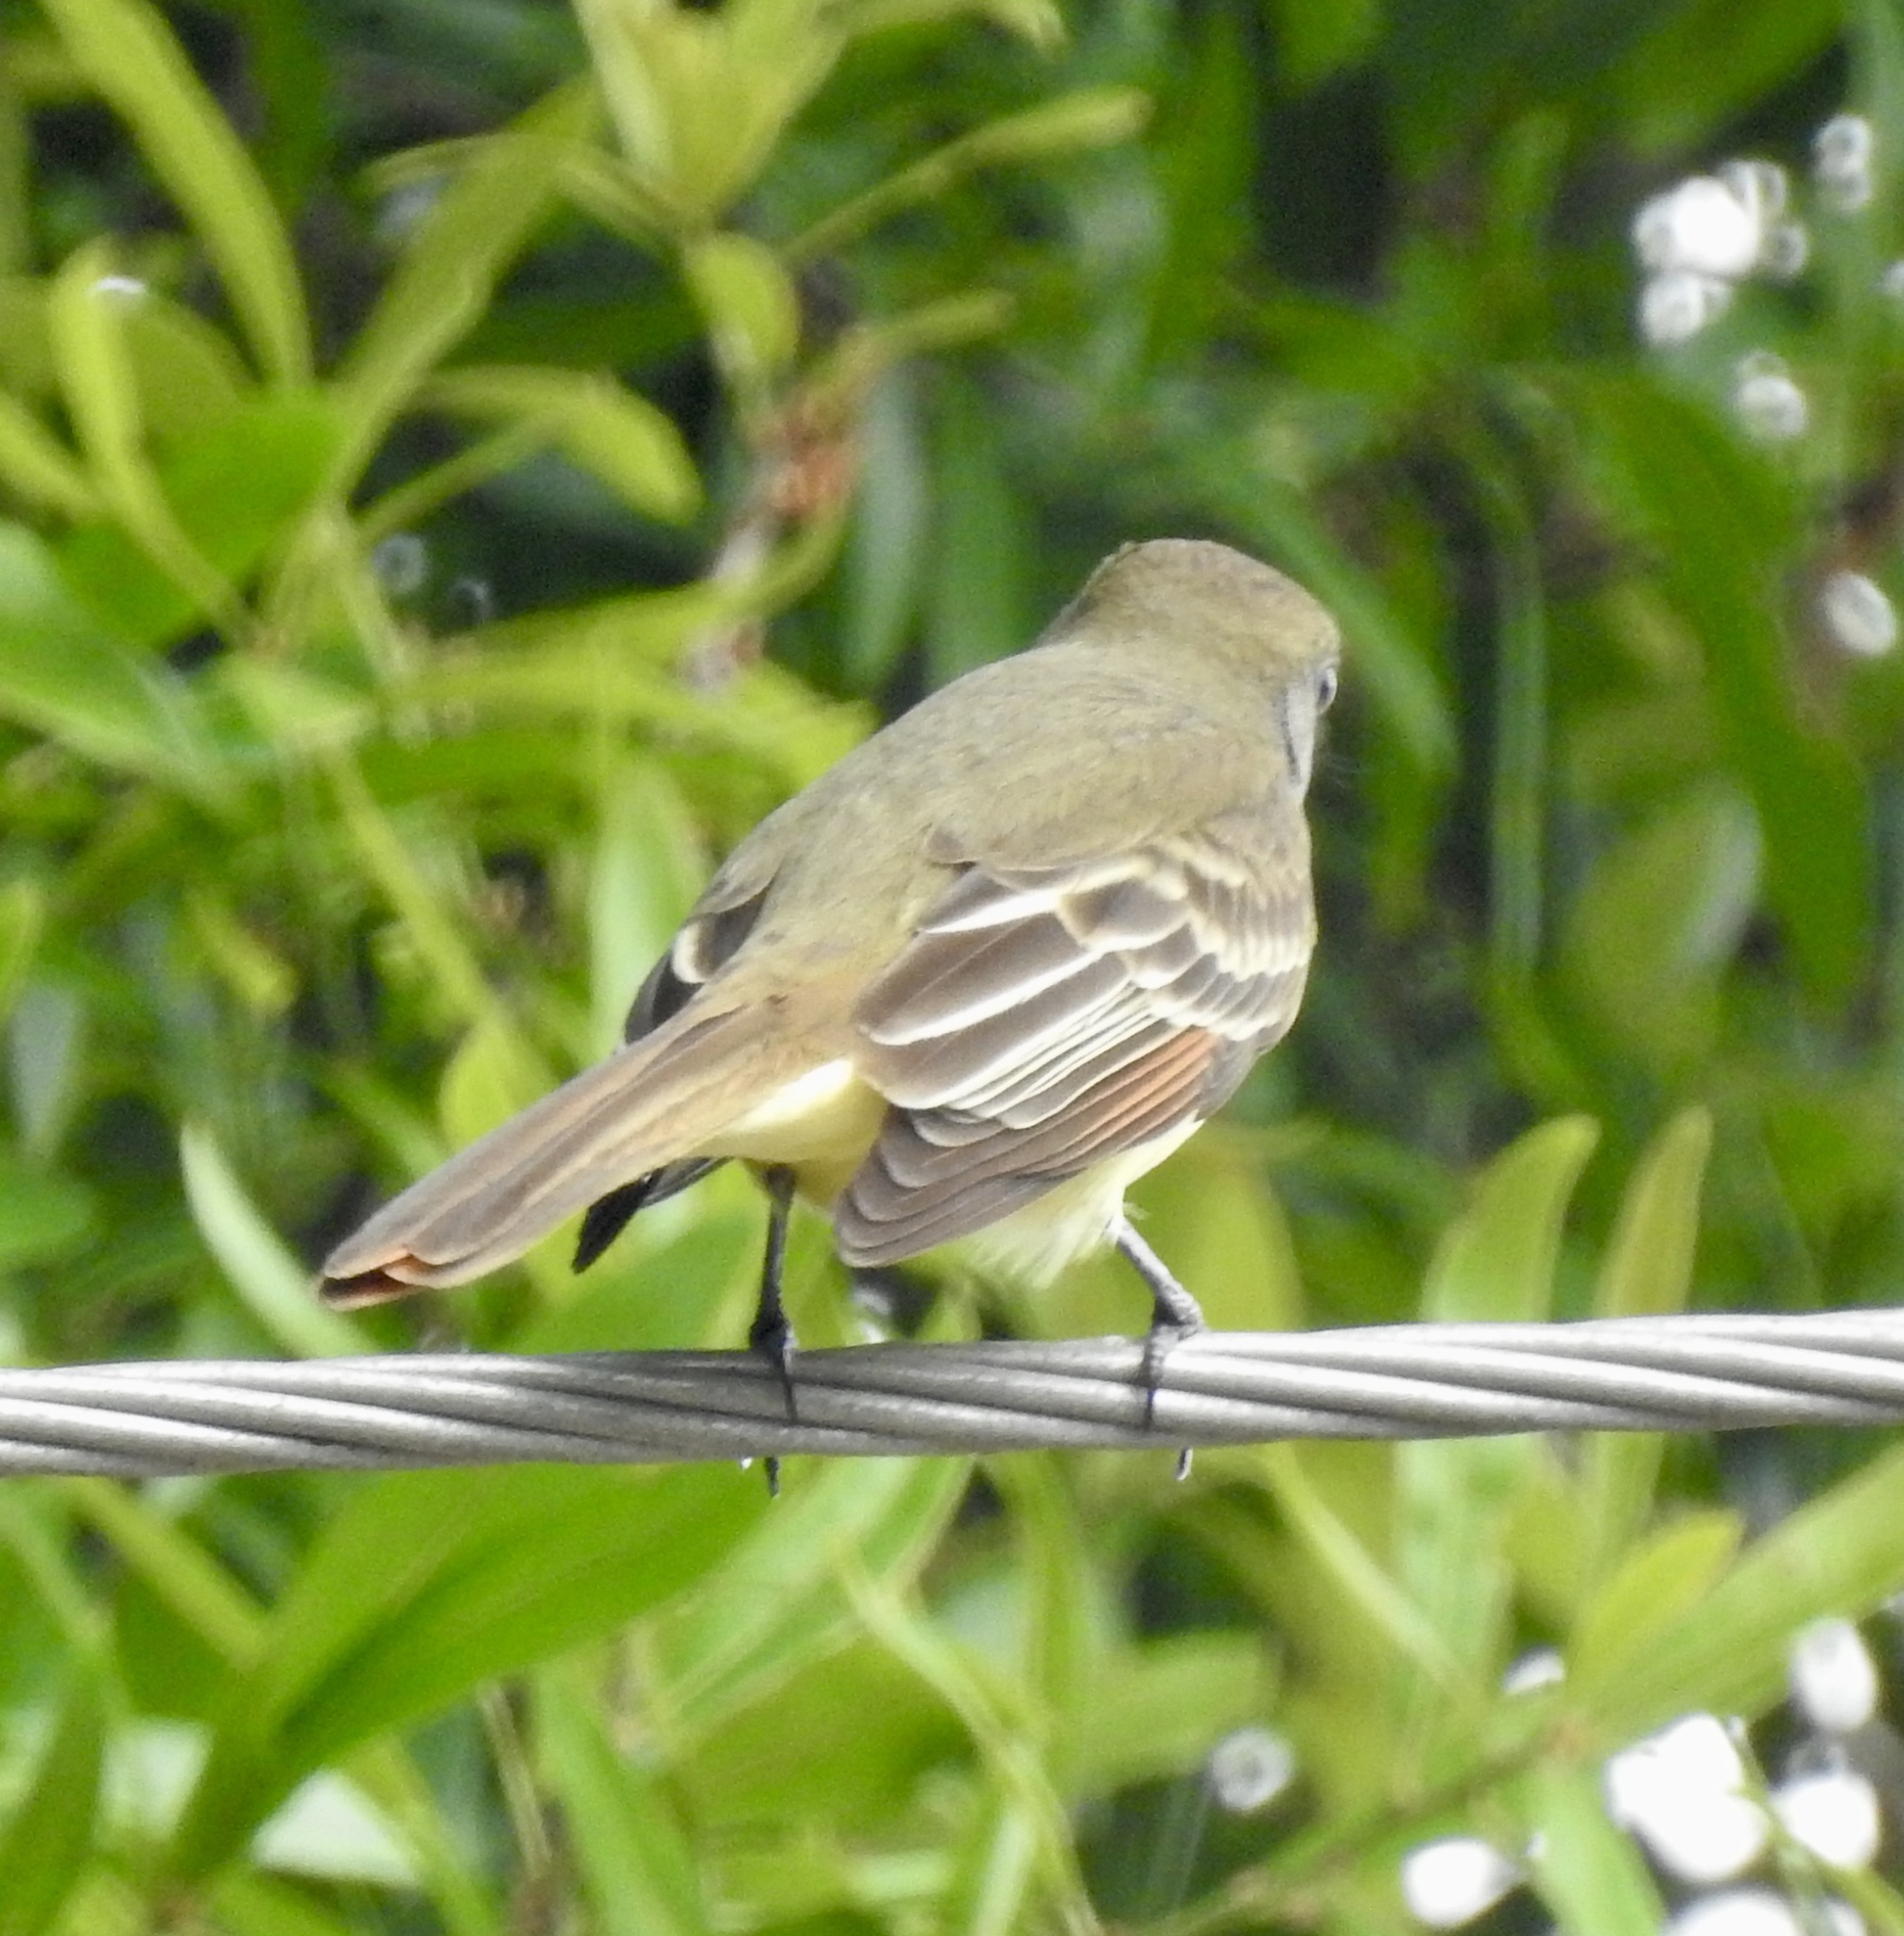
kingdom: Animalia
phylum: Chordata
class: Aves
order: Passeriformes
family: Tyrannidae
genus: Myiarchus
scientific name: Myiarchus crinitus
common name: Great crested flycatcher
